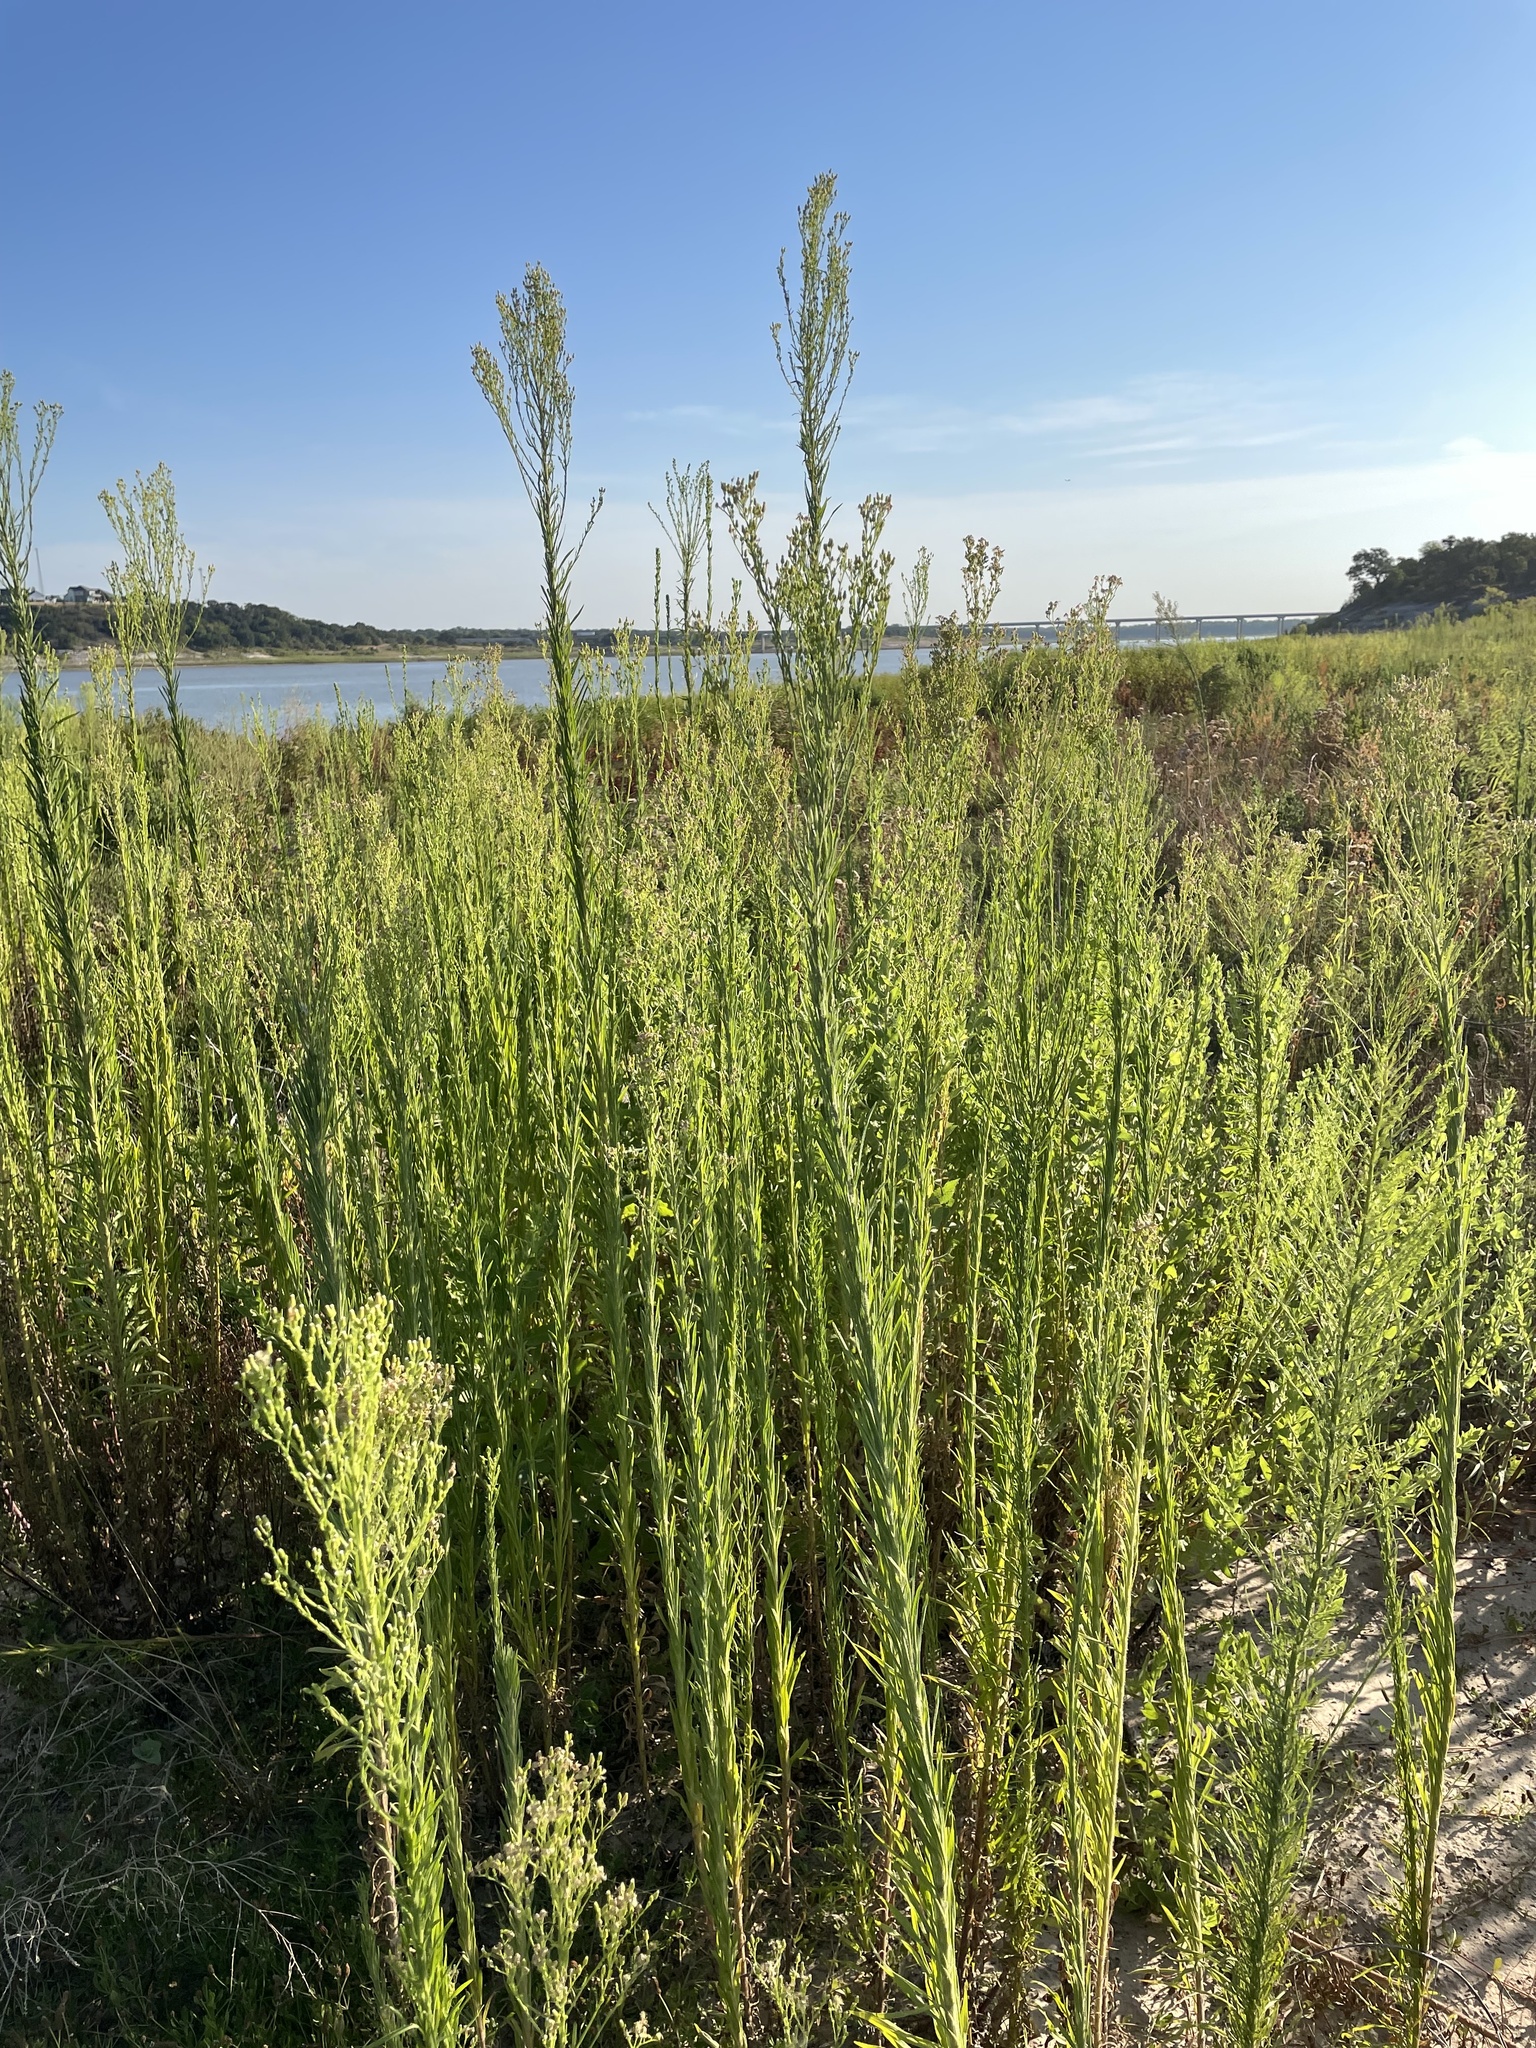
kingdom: Plantae
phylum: Tracheophyta
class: Magnoliopsida
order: Asterales
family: Asteraceae
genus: Erigeron
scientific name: Erigeron canadensis
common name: Canadian fleabane
